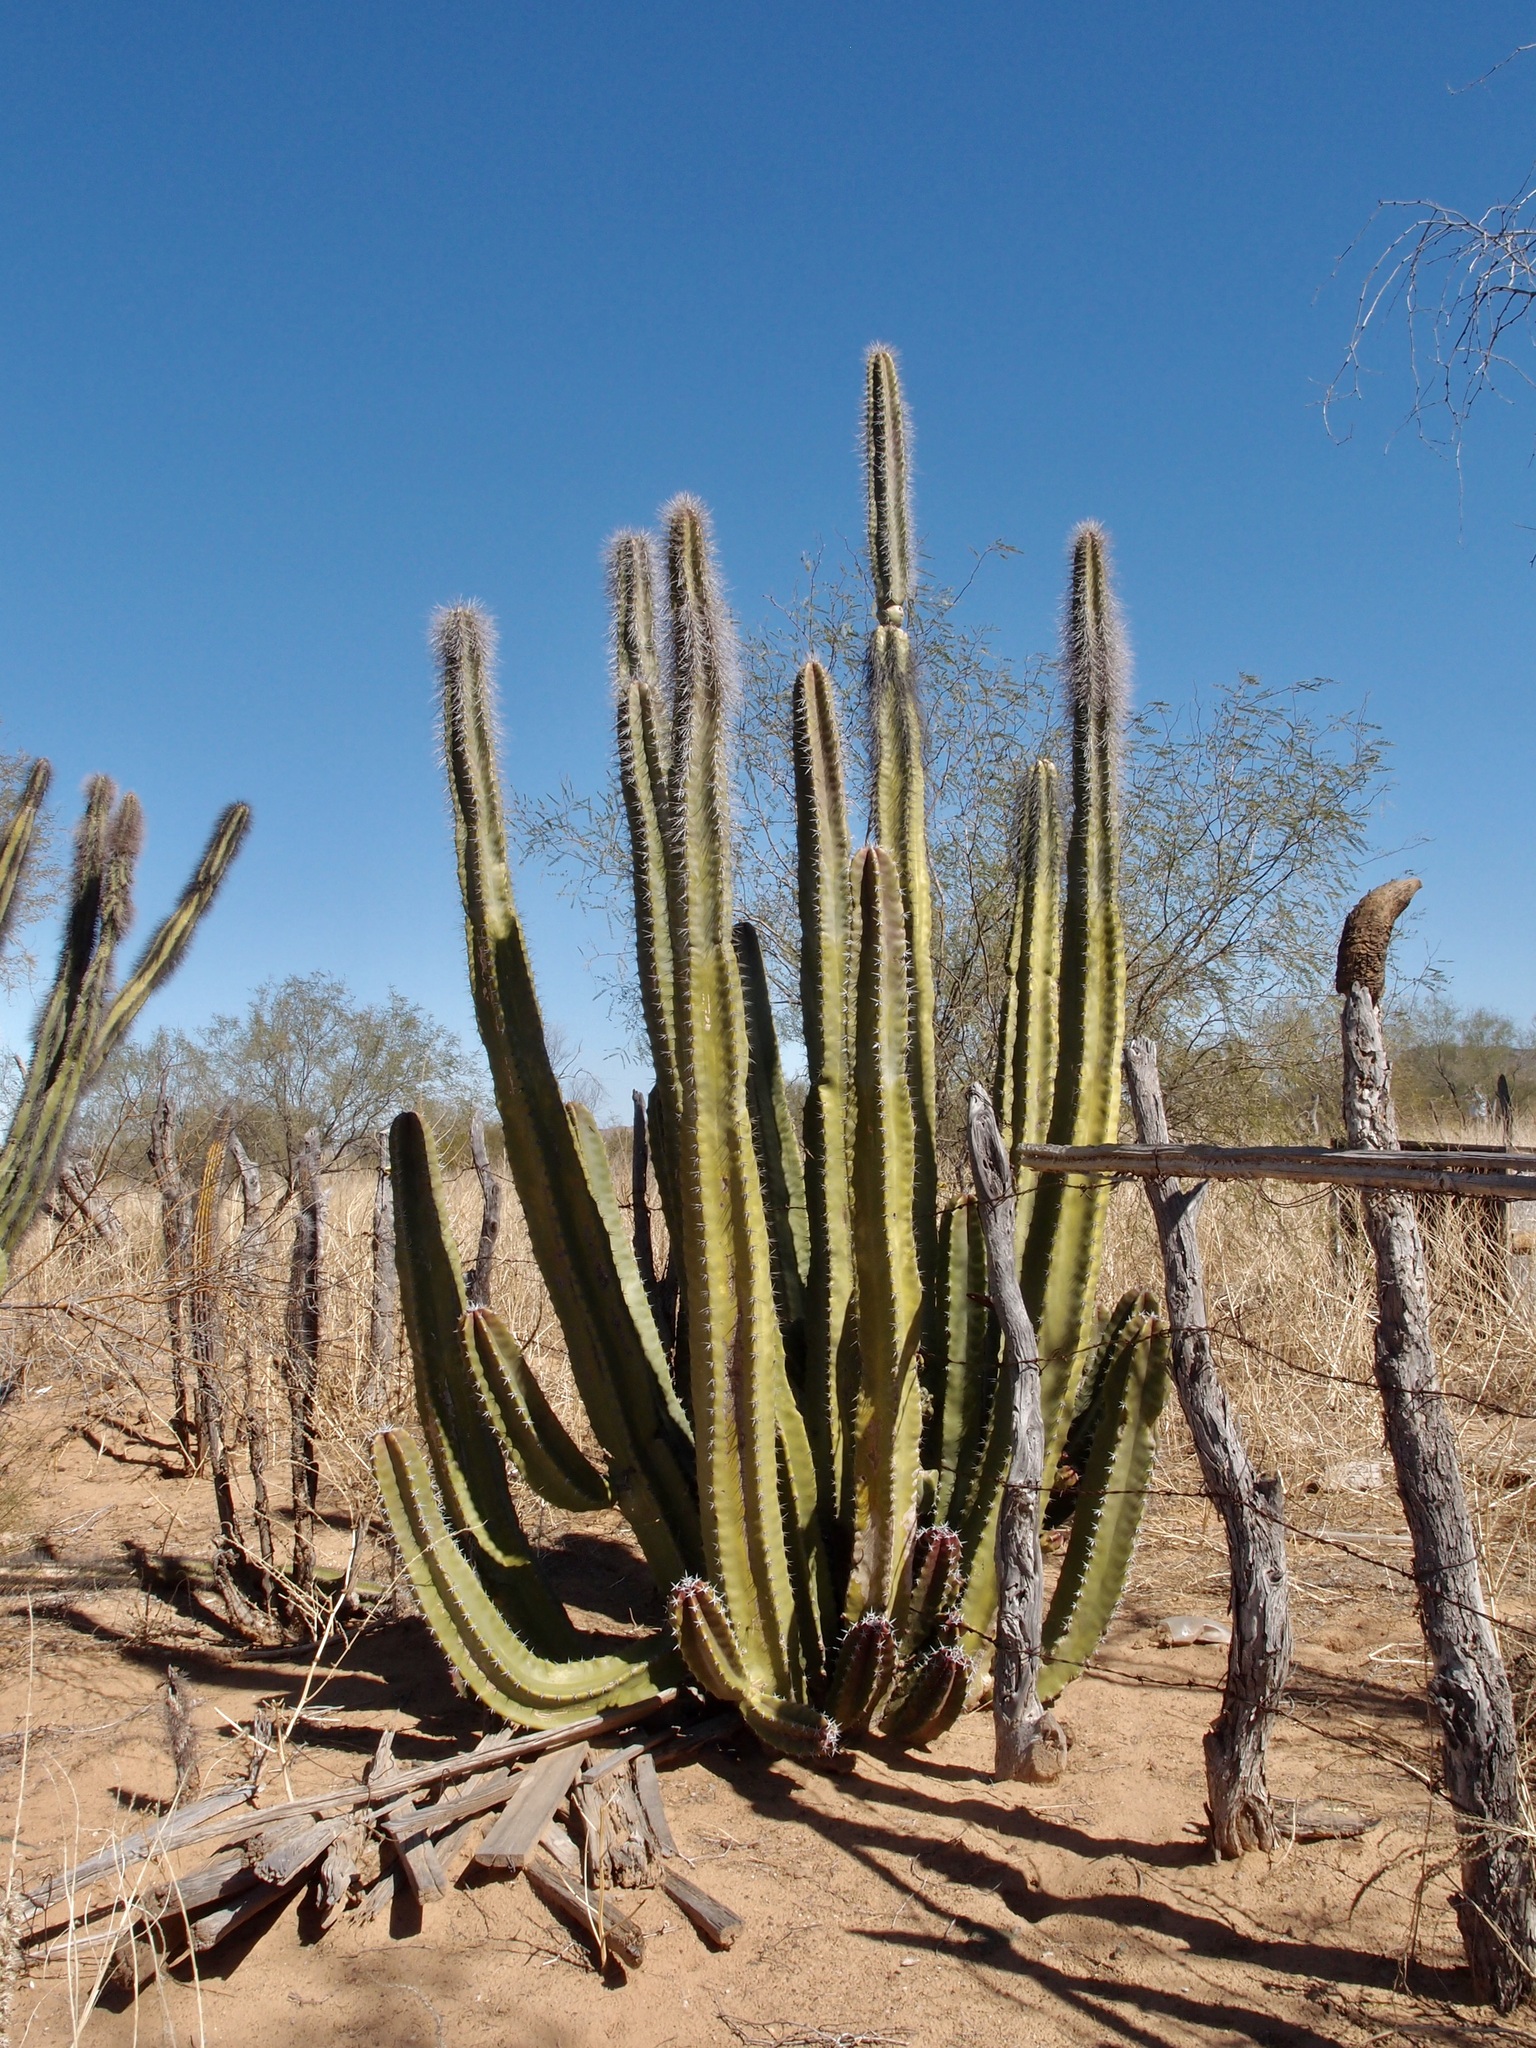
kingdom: Plantae
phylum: Tracheophyta
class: Magnoliopsida
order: Caryophyllales
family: Cactaceae
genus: Pachycereus
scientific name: Pachycereus schottii
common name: Senita cactus
